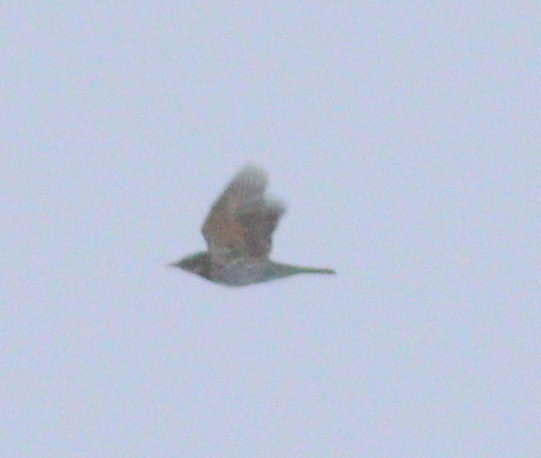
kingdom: Animalia
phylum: Chordata
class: Aves
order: Passeriformes
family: Turdidae
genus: Turdus
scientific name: Turdus iliacus
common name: Redwing
